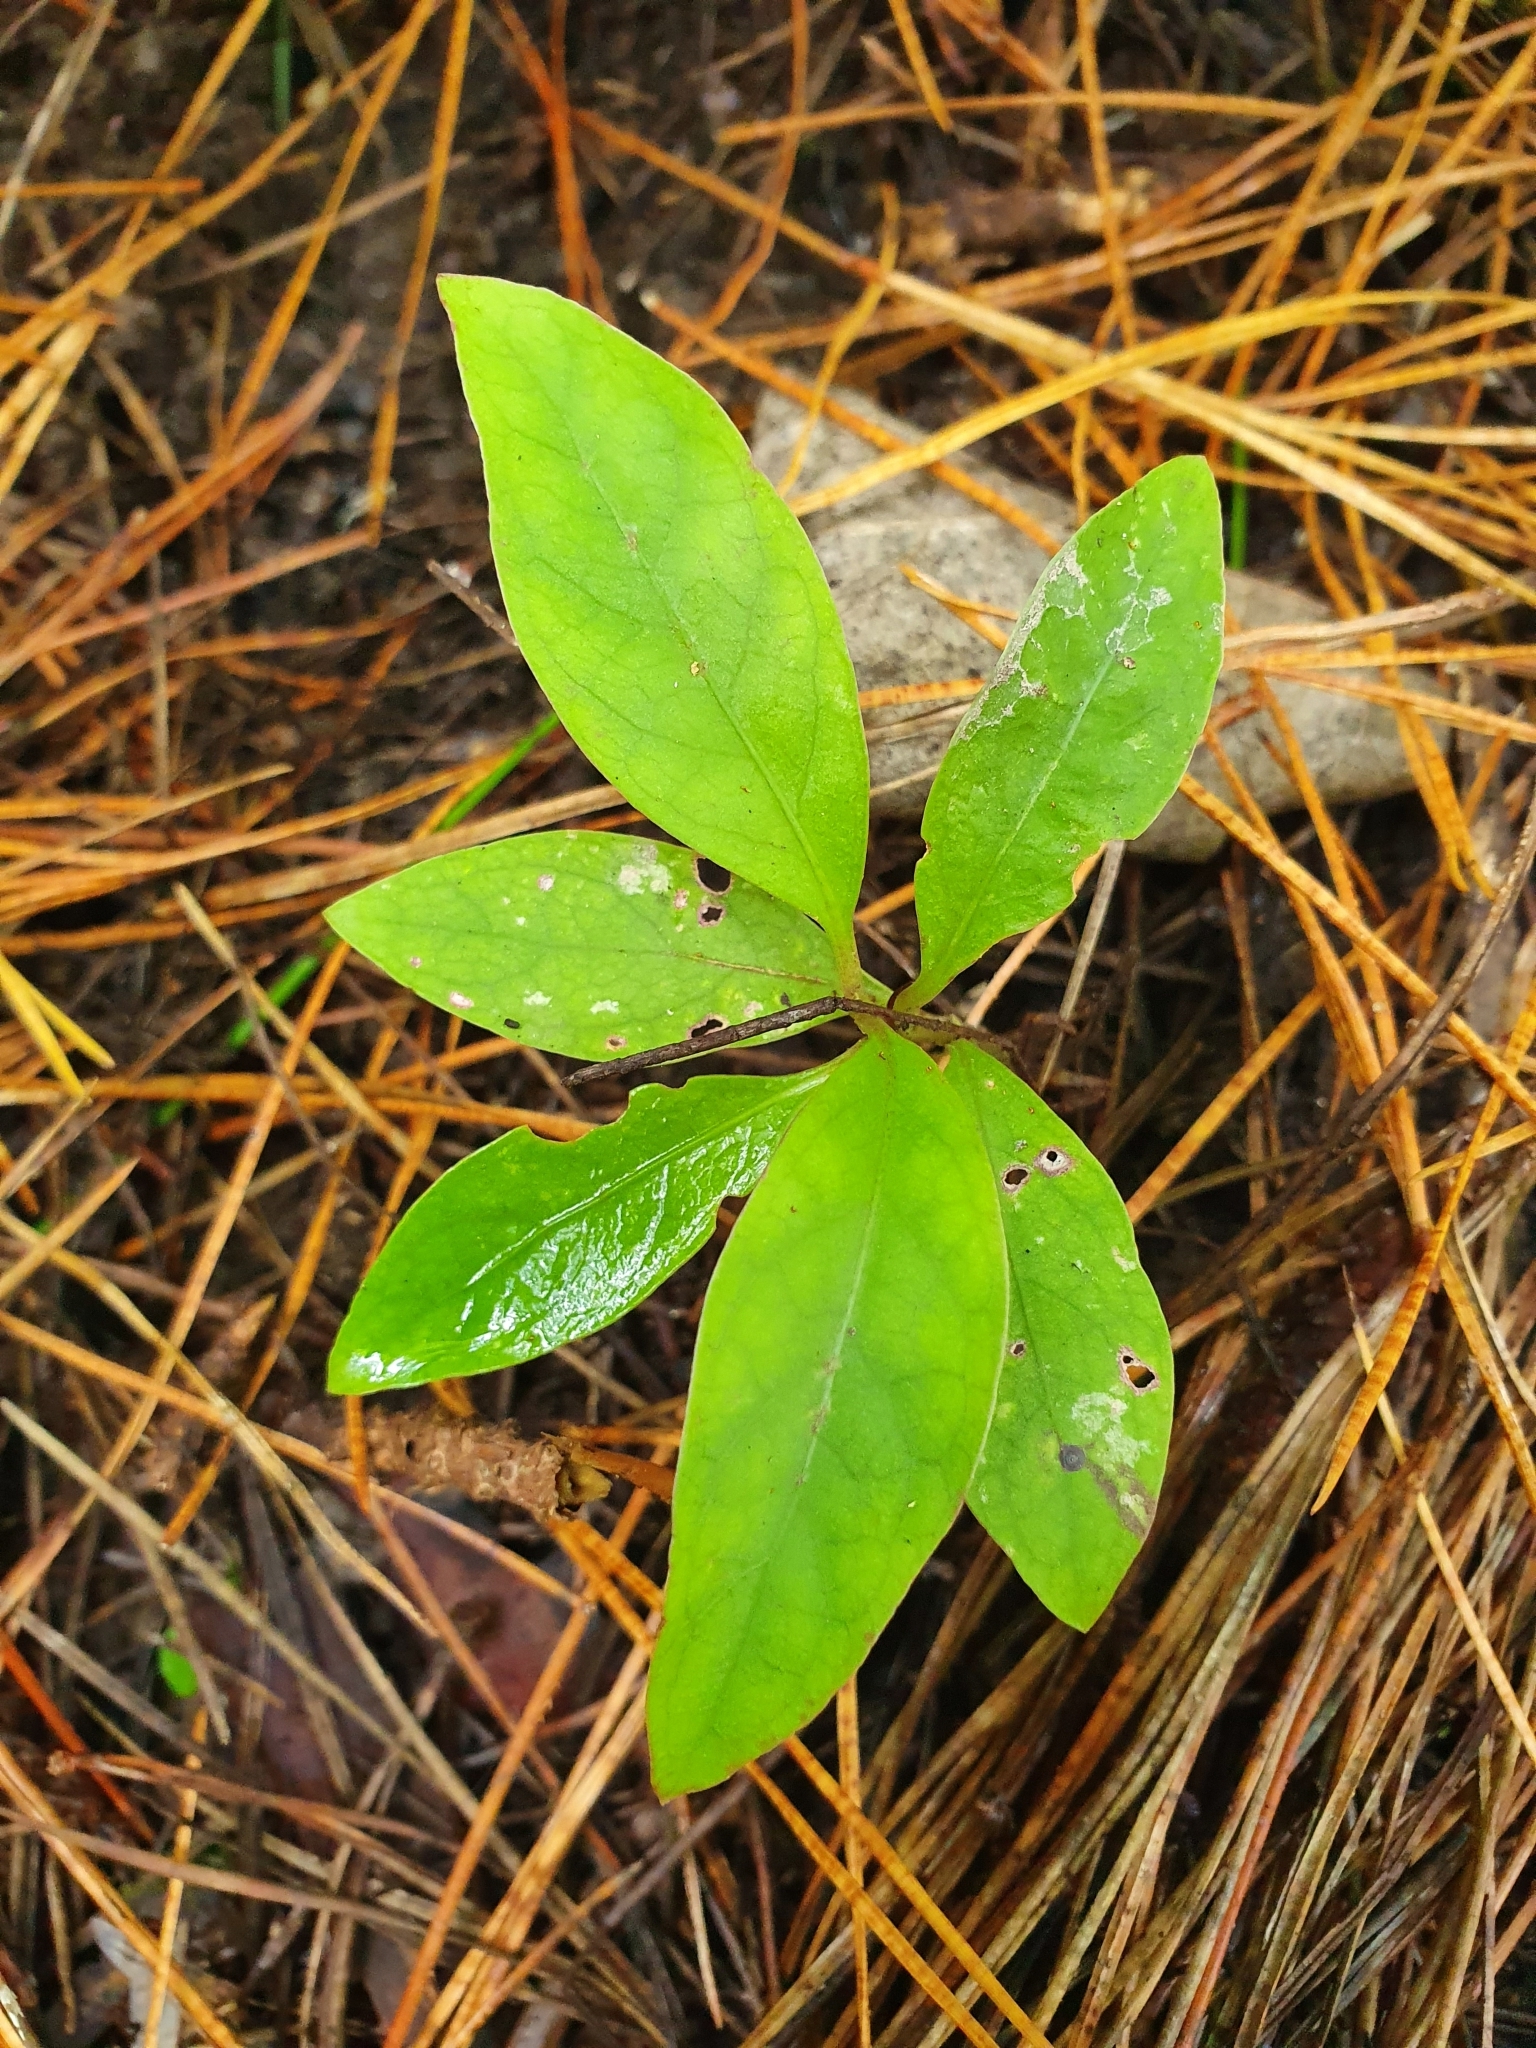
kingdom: Plantae
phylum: Tracheophyta
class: Magnoliopsida
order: Gentianales
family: Rubiaceae
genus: Coprosma
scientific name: Coprosma autumnalis
